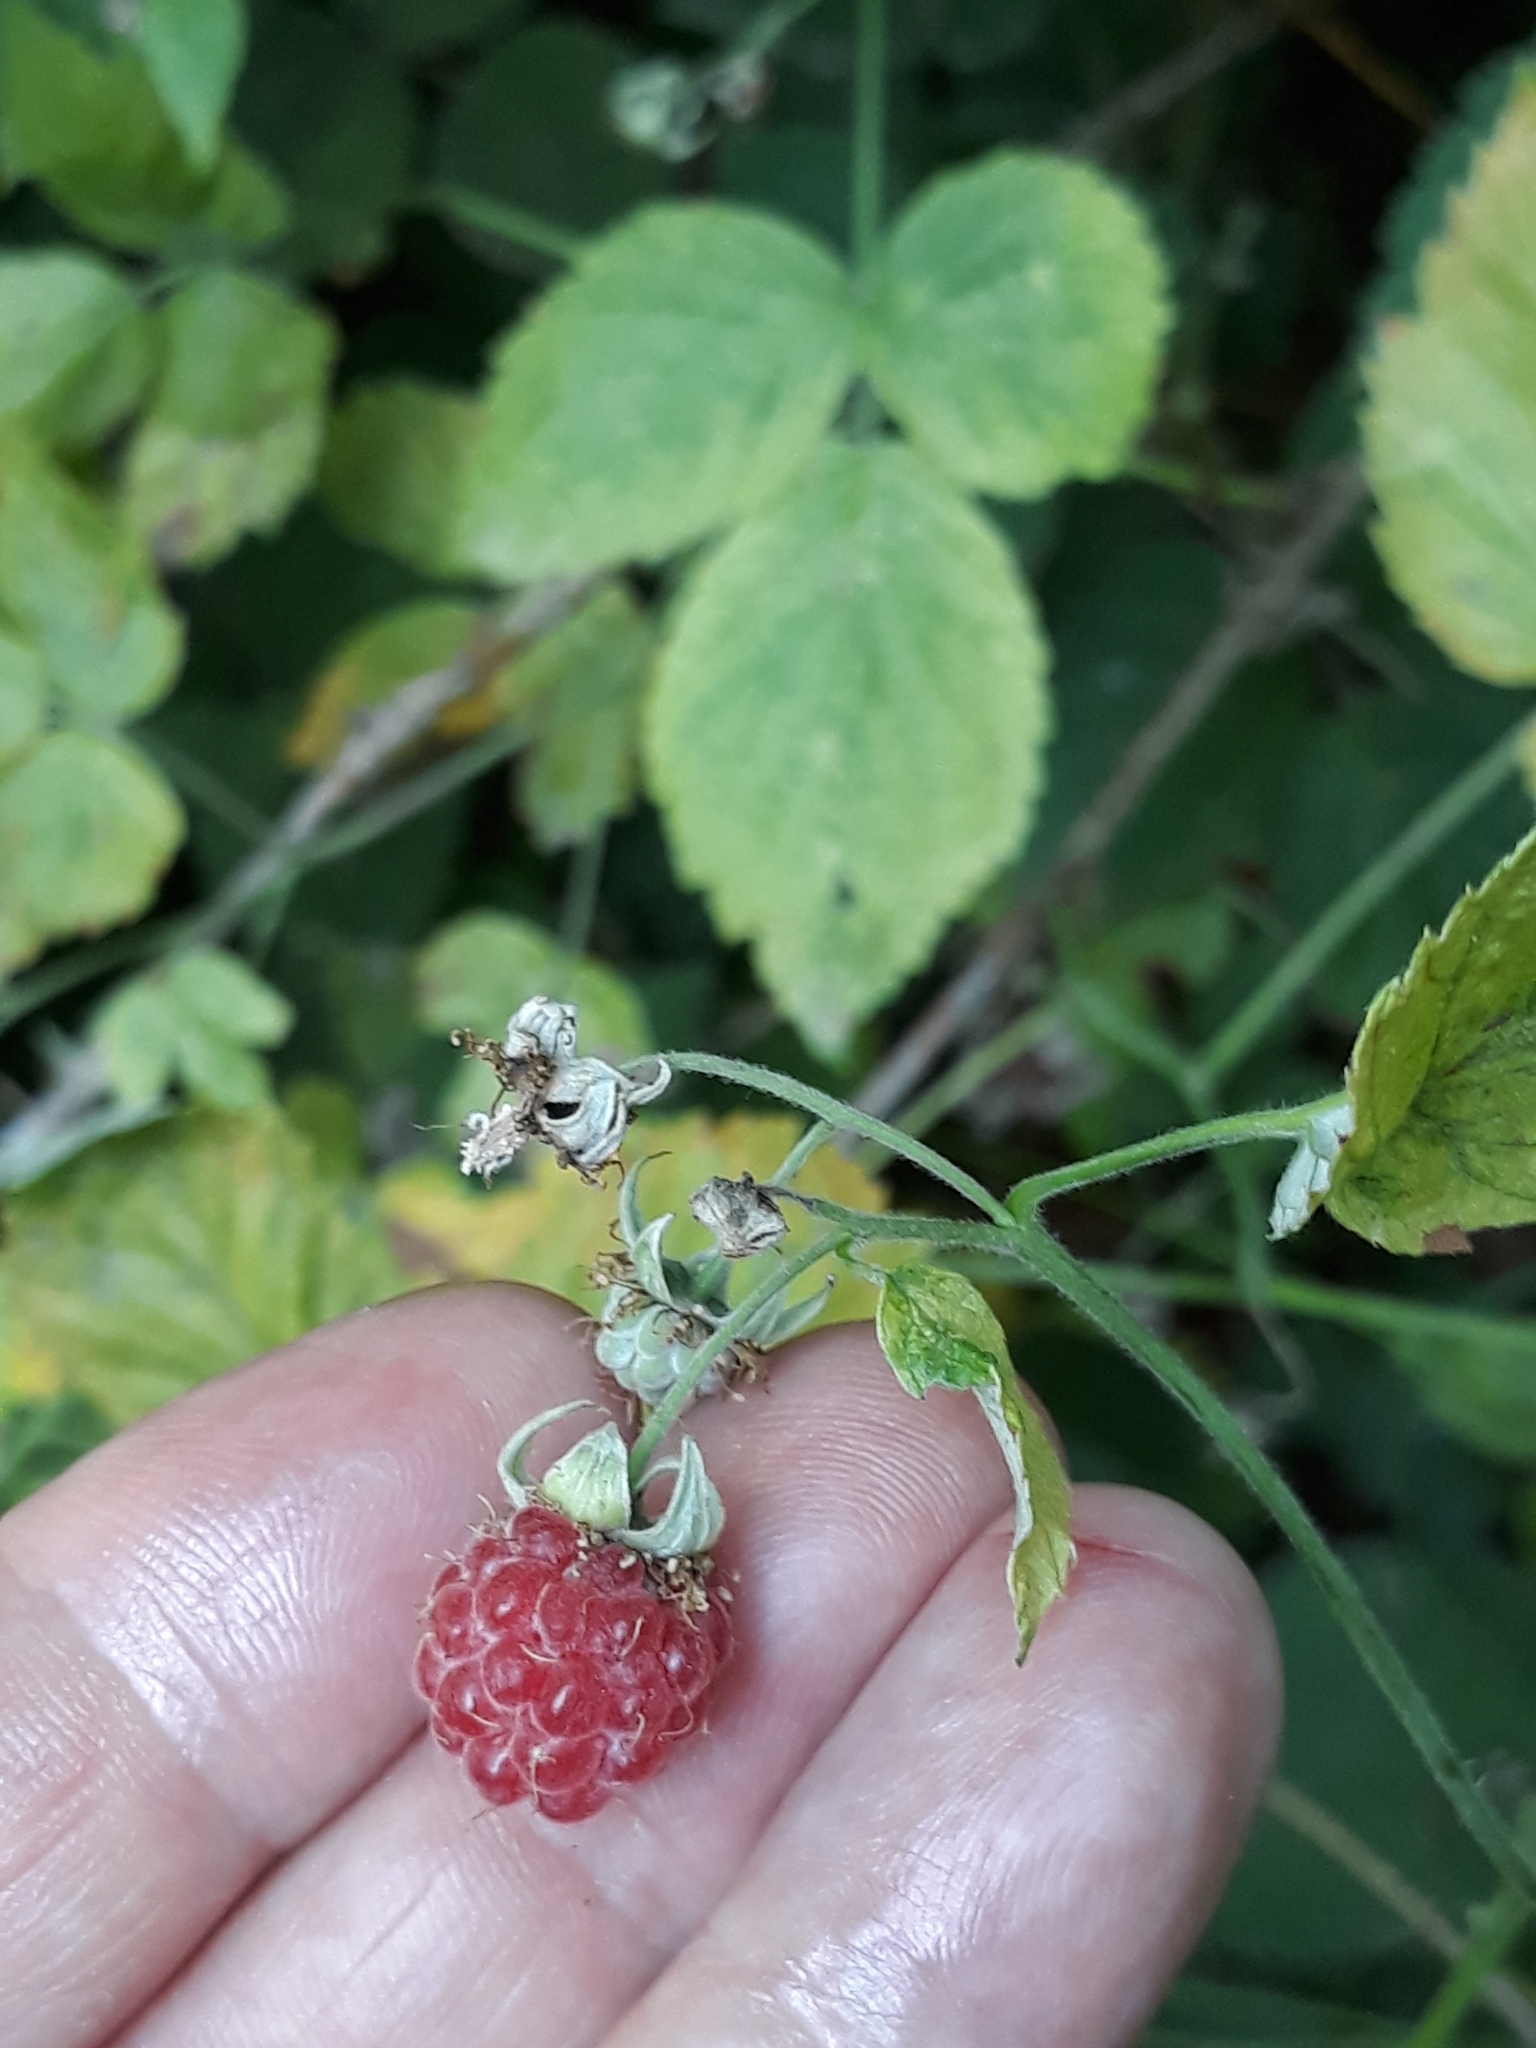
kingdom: Plantae
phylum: Tracheophyta
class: Magnoliopsida
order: Rosales
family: Rosaceae
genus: Rubus
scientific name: Rubus idaeus
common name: Raspberry
